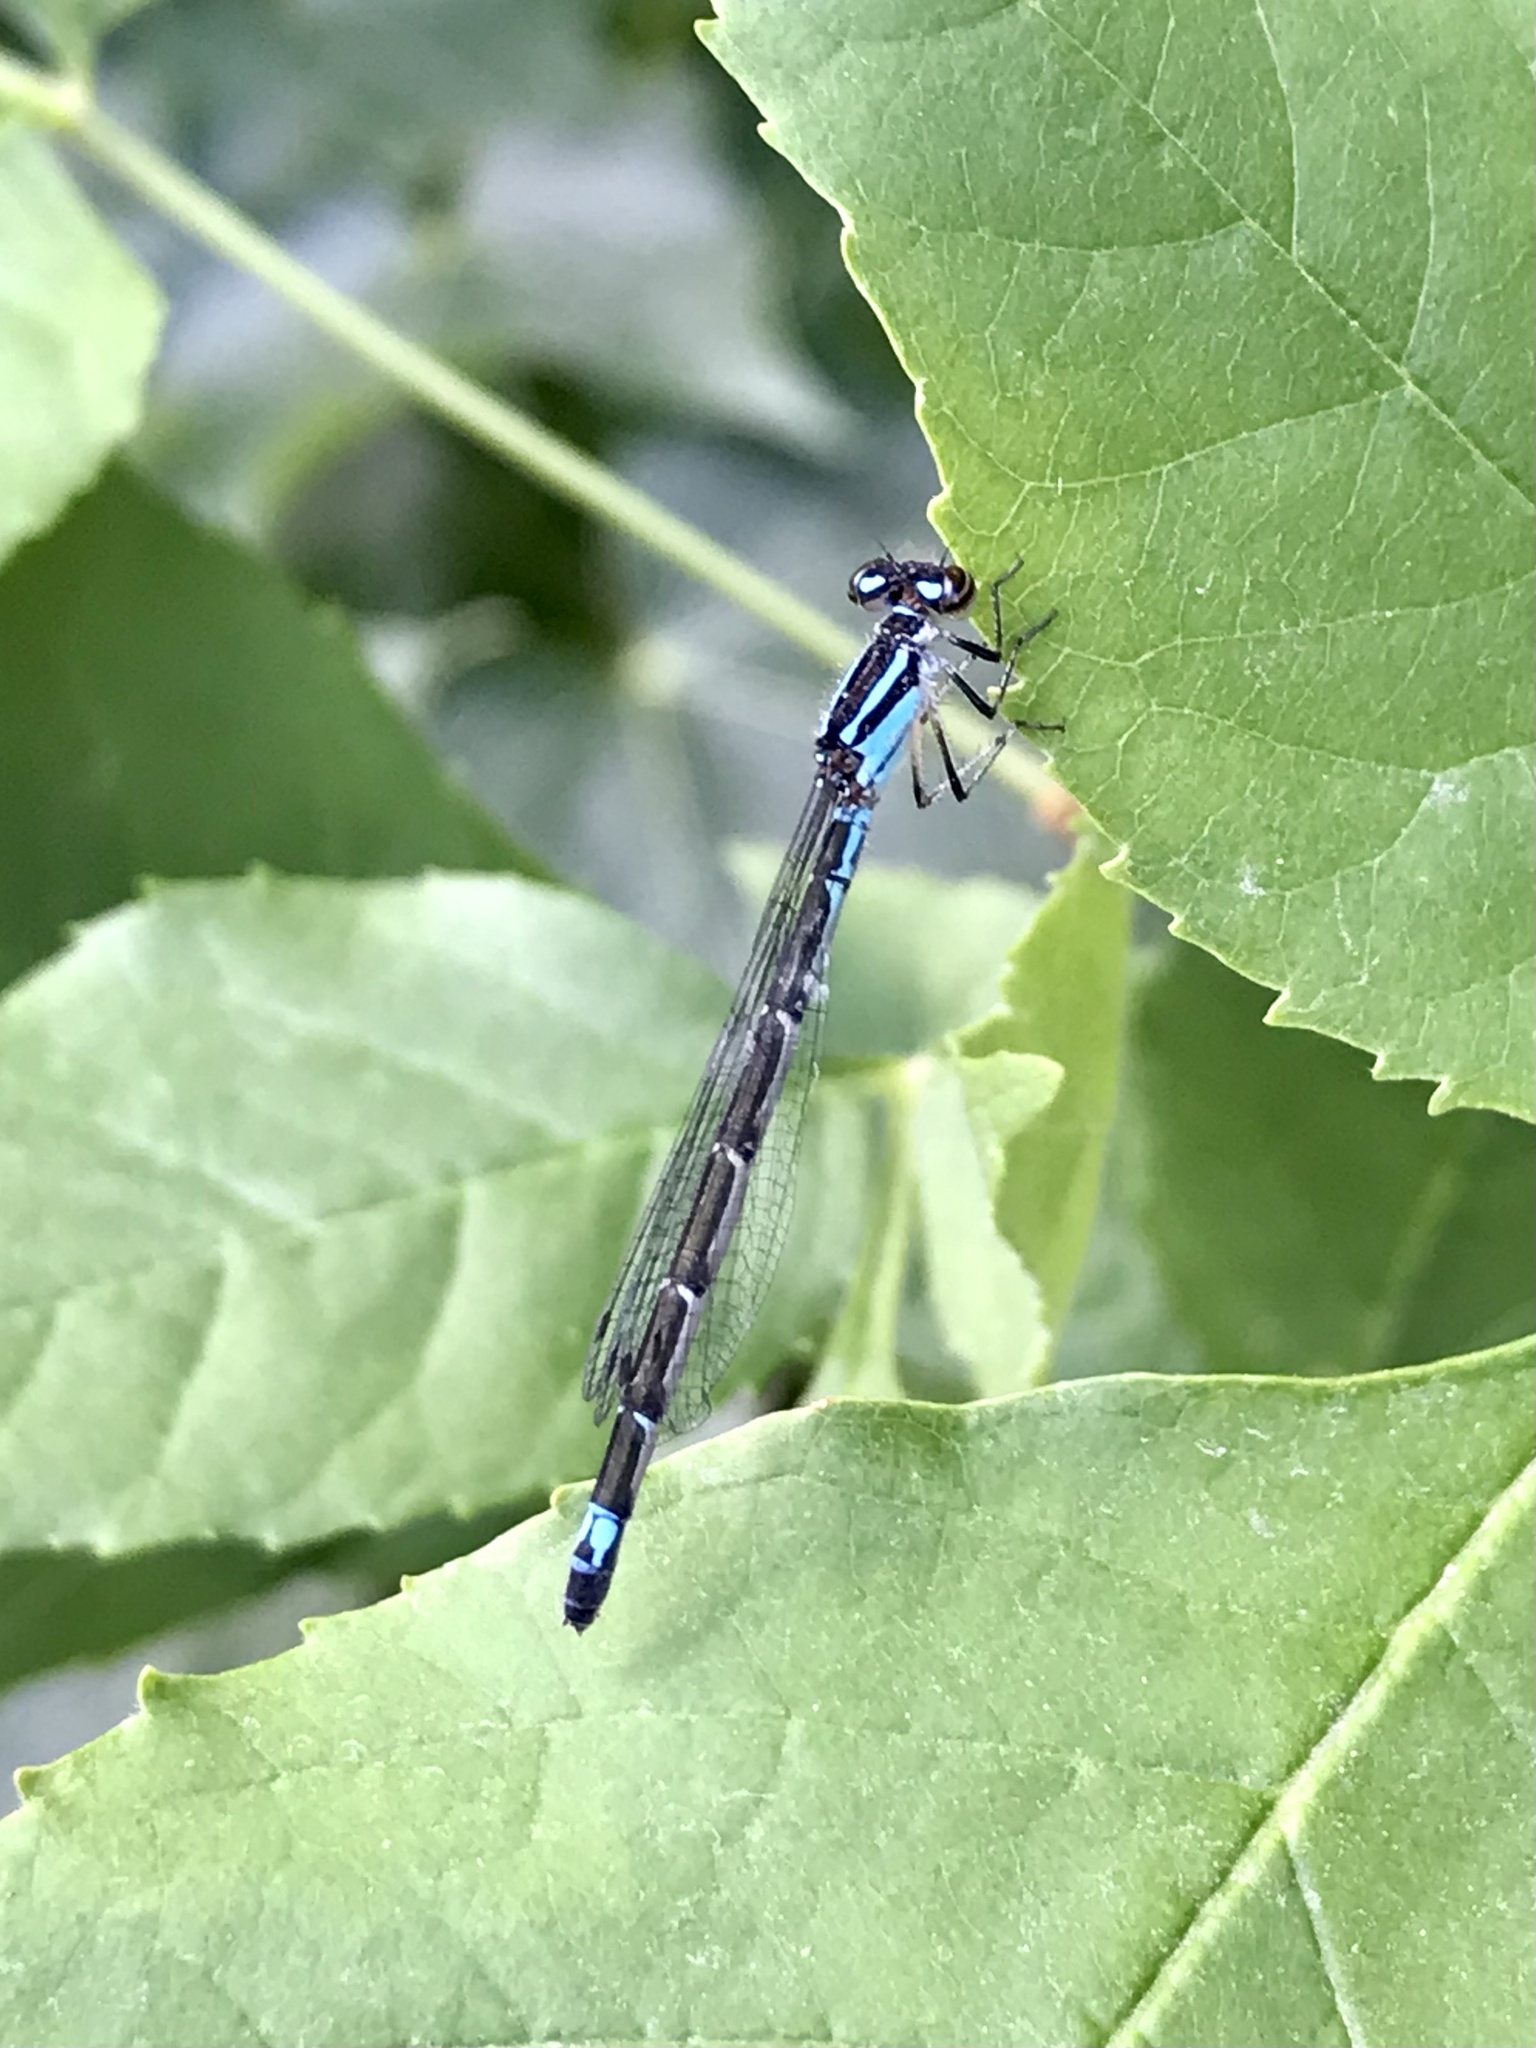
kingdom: Animalia
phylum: Arthropoda
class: Insecta
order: Odonata
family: Coenagrionidae
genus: Enallagma
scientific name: Enallagma geminatum
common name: Skimming bluet
